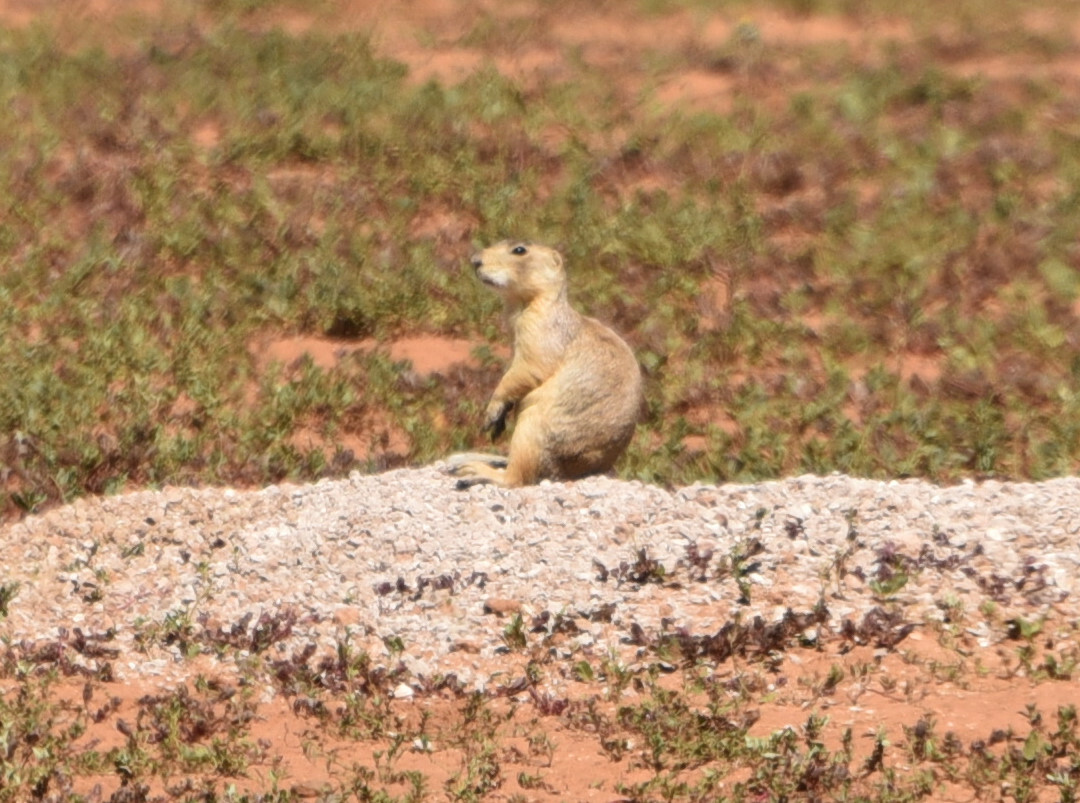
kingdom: Animalia
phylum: Chordata
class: Mammalia
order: Rodentia
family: Sciuridae
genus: Cynomys
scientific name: Cynomys gunnisoni
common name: Gunnison's prairie dog
